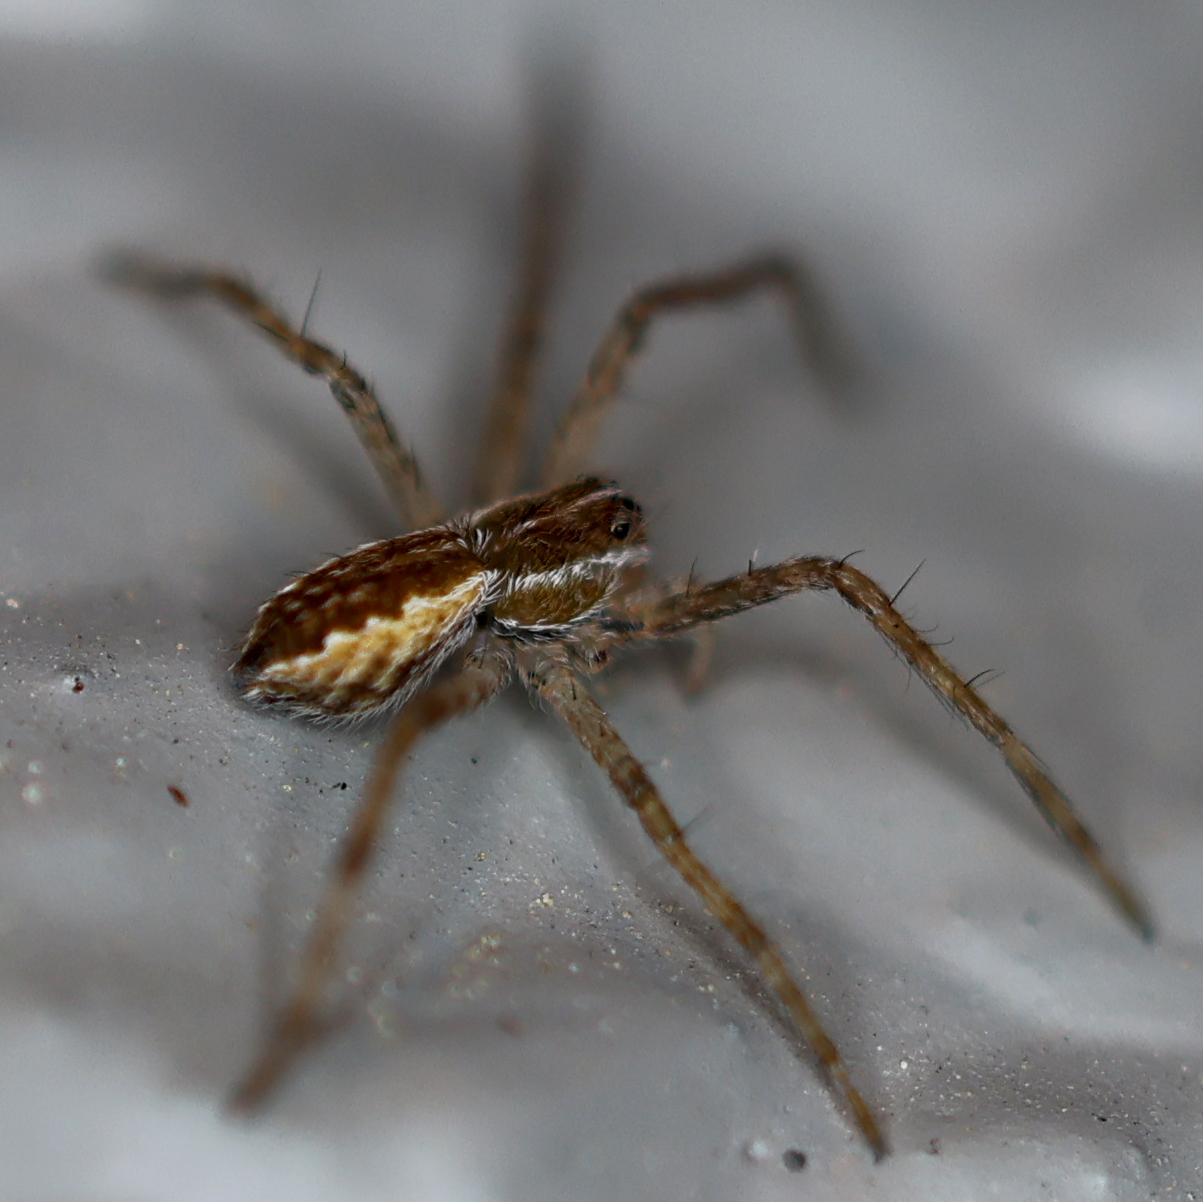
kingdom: Animalia
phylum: Arthropoda
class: Arachnida
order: Araneae
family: Pisauridae
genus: Pisaurina
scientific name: Pisaurina mira
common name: American nursery web spider
